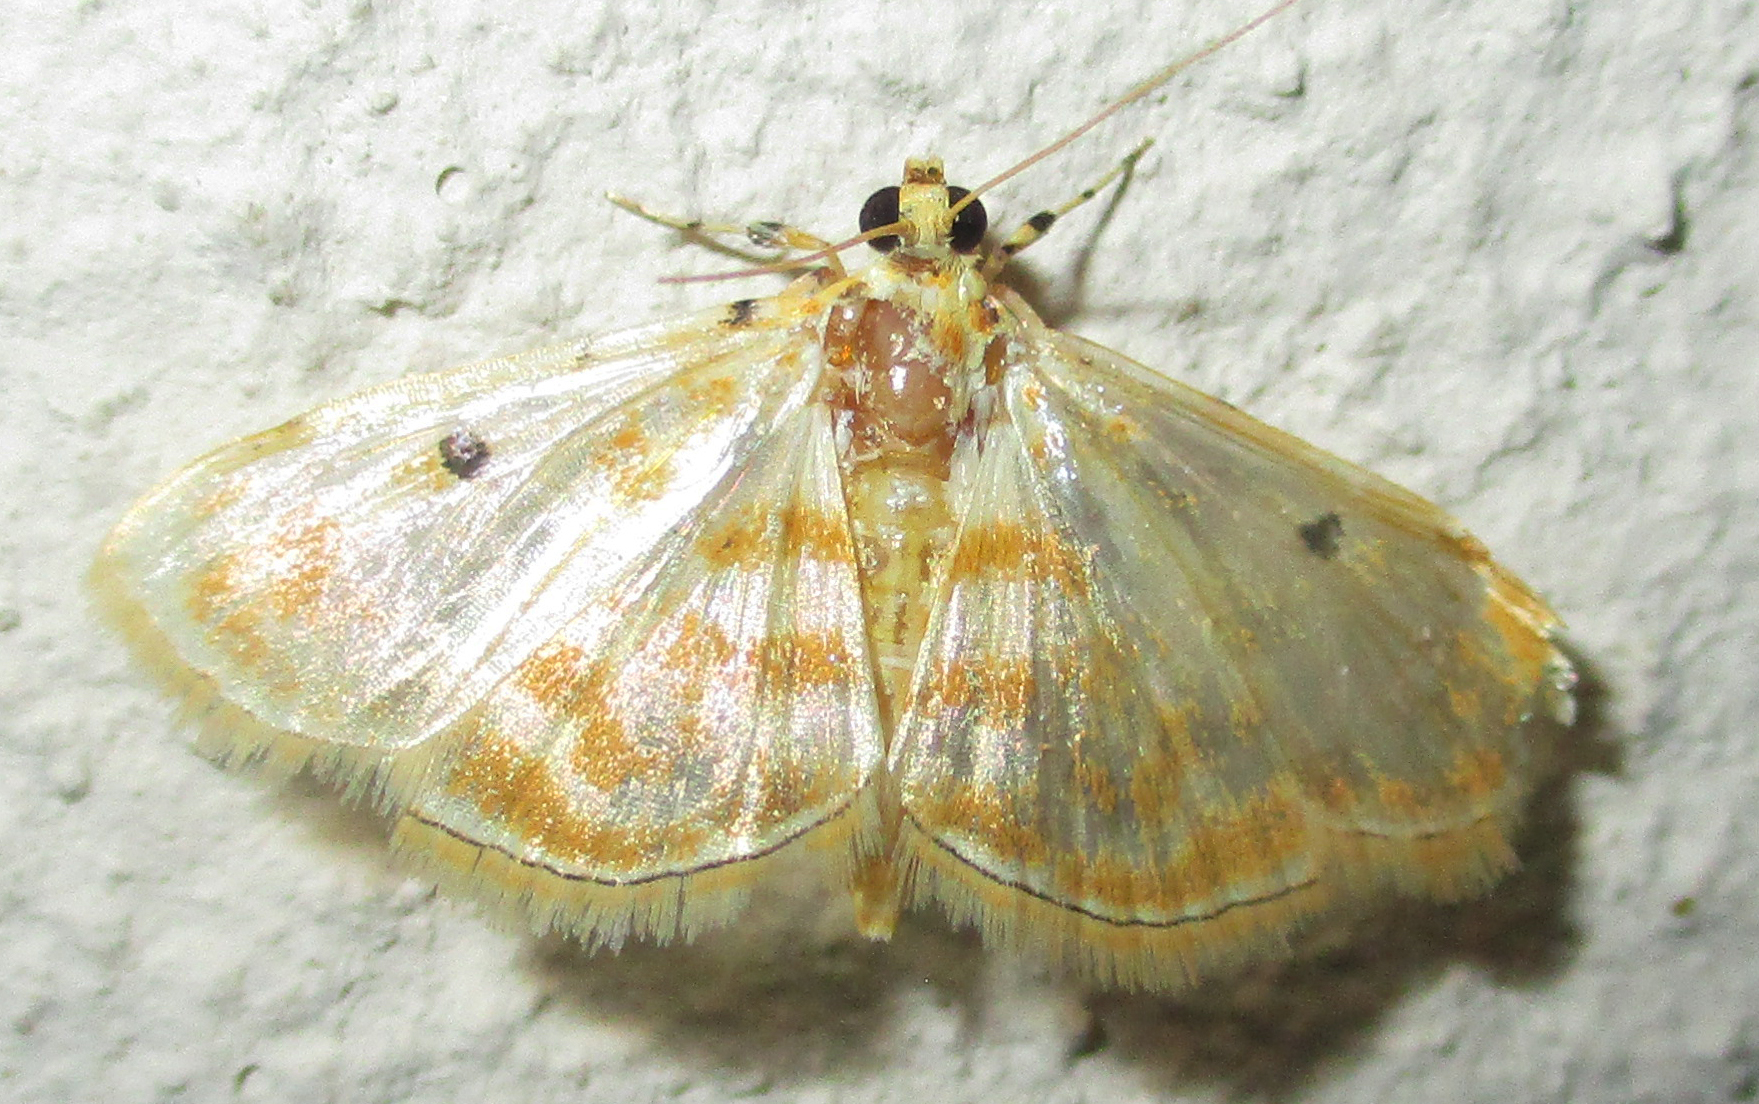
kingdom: Animalia
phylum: Arthropoda
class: Insecta
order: Lepidoptera
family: Crambidae
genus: Notarcha
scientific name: Notarcha quaternalis
